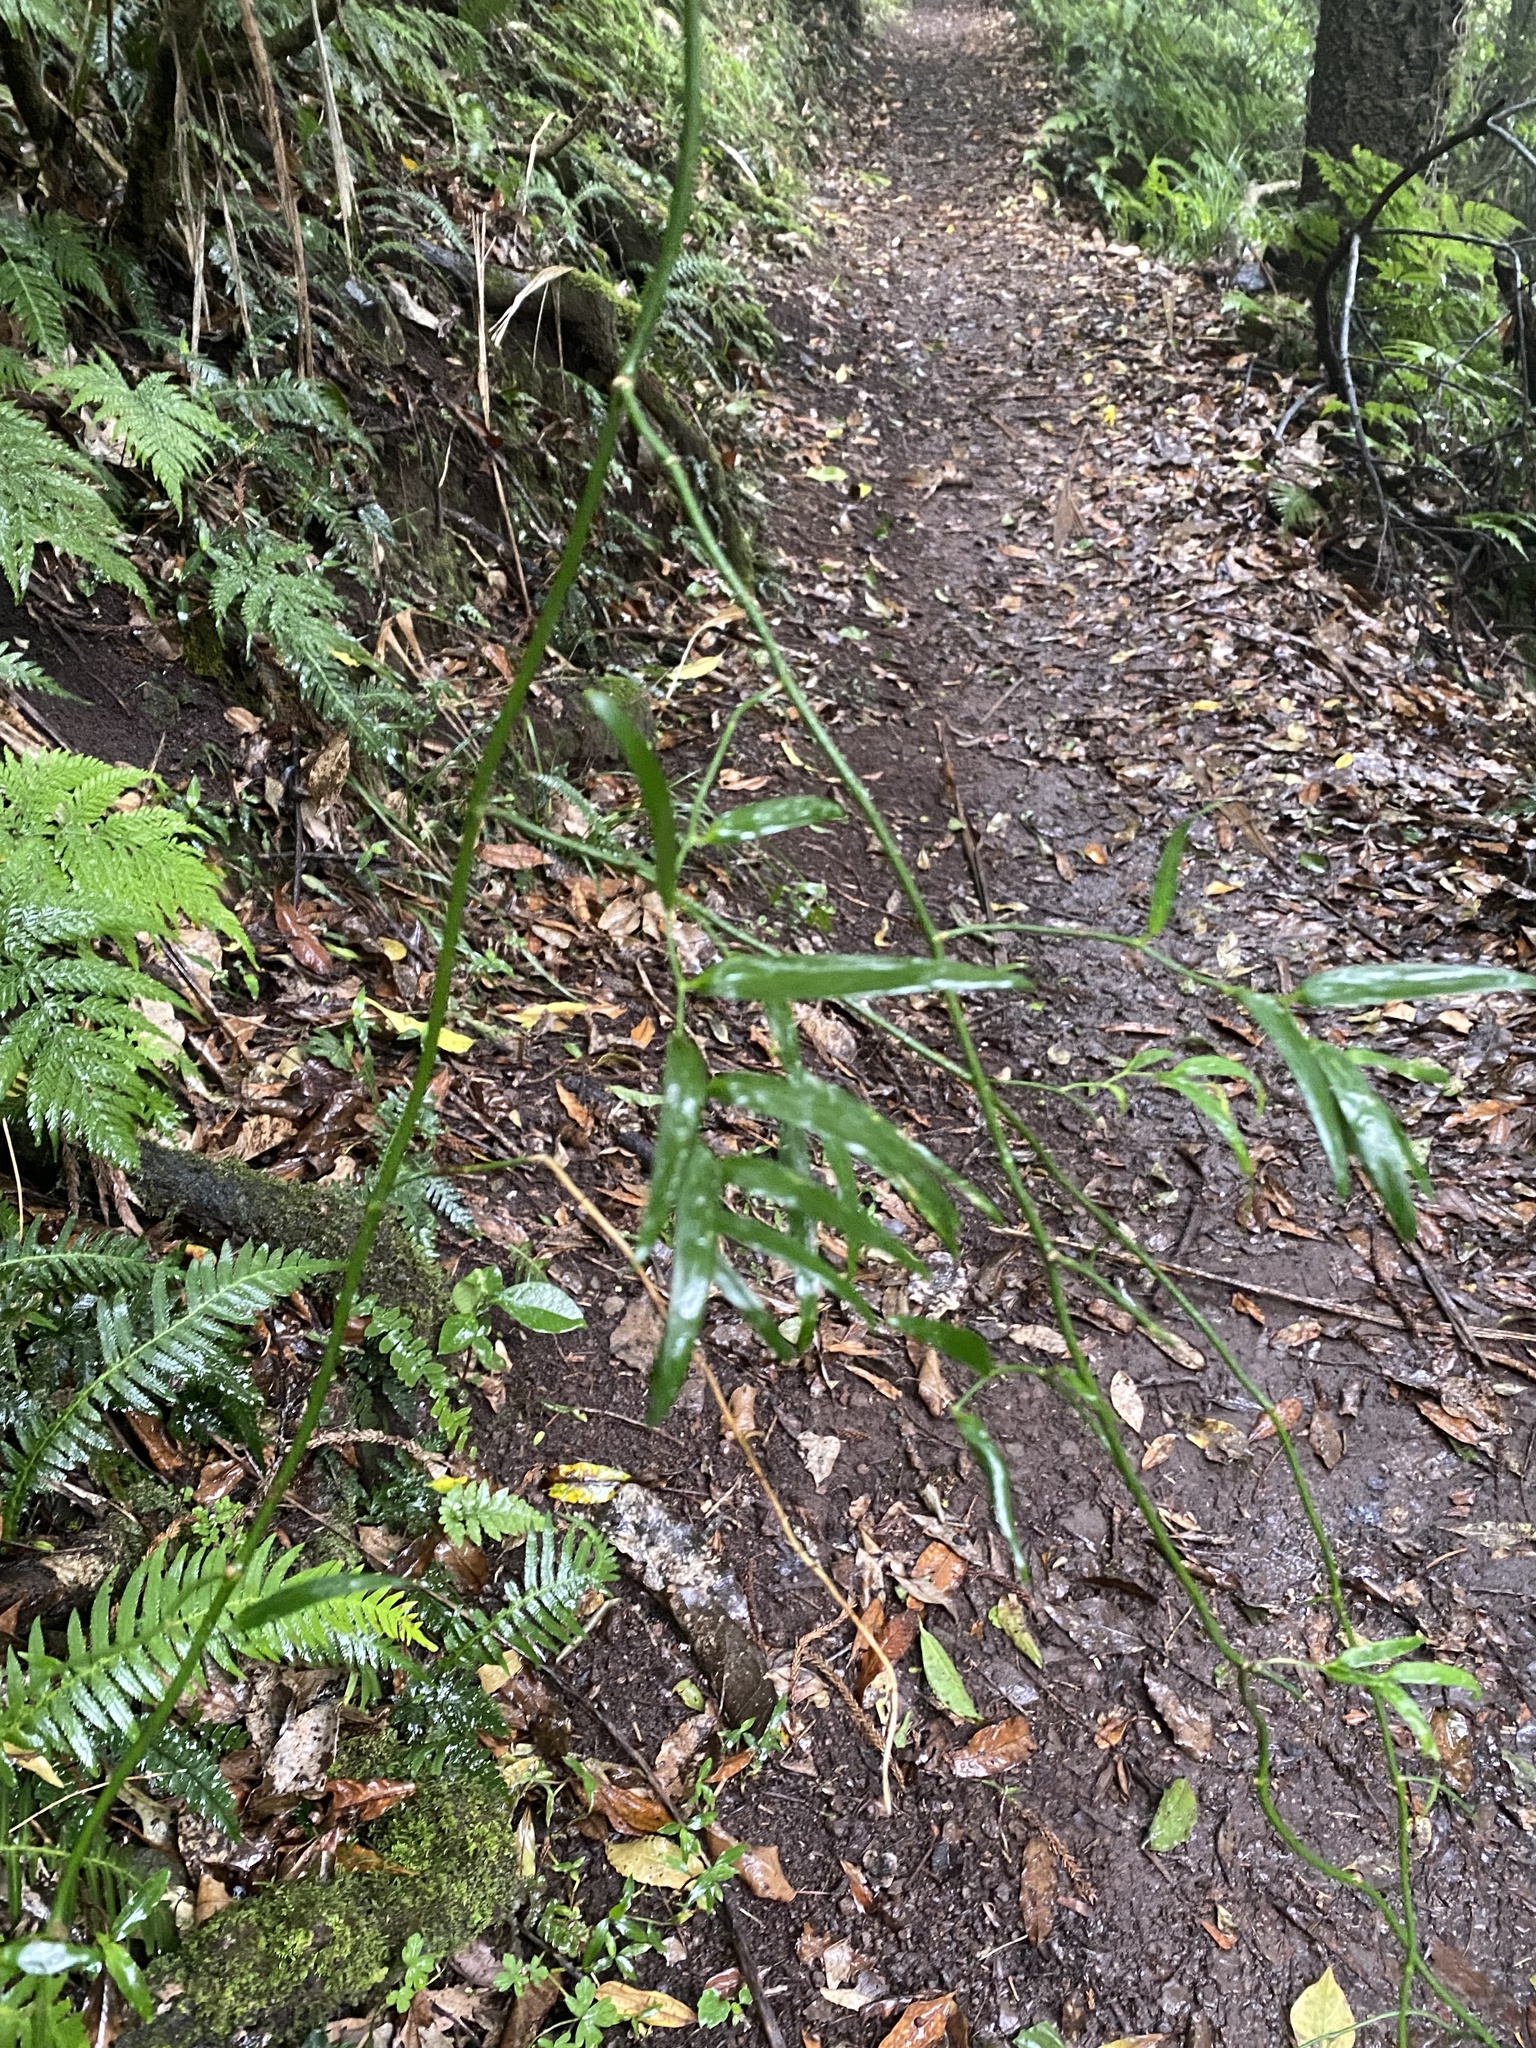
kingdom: Plantae
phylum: Tracheophyta
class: Liliopsida
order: Asparagales
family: Asparagaceae
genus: Eustrephus
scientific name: Eustrephus latifolius
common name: Orangevine
